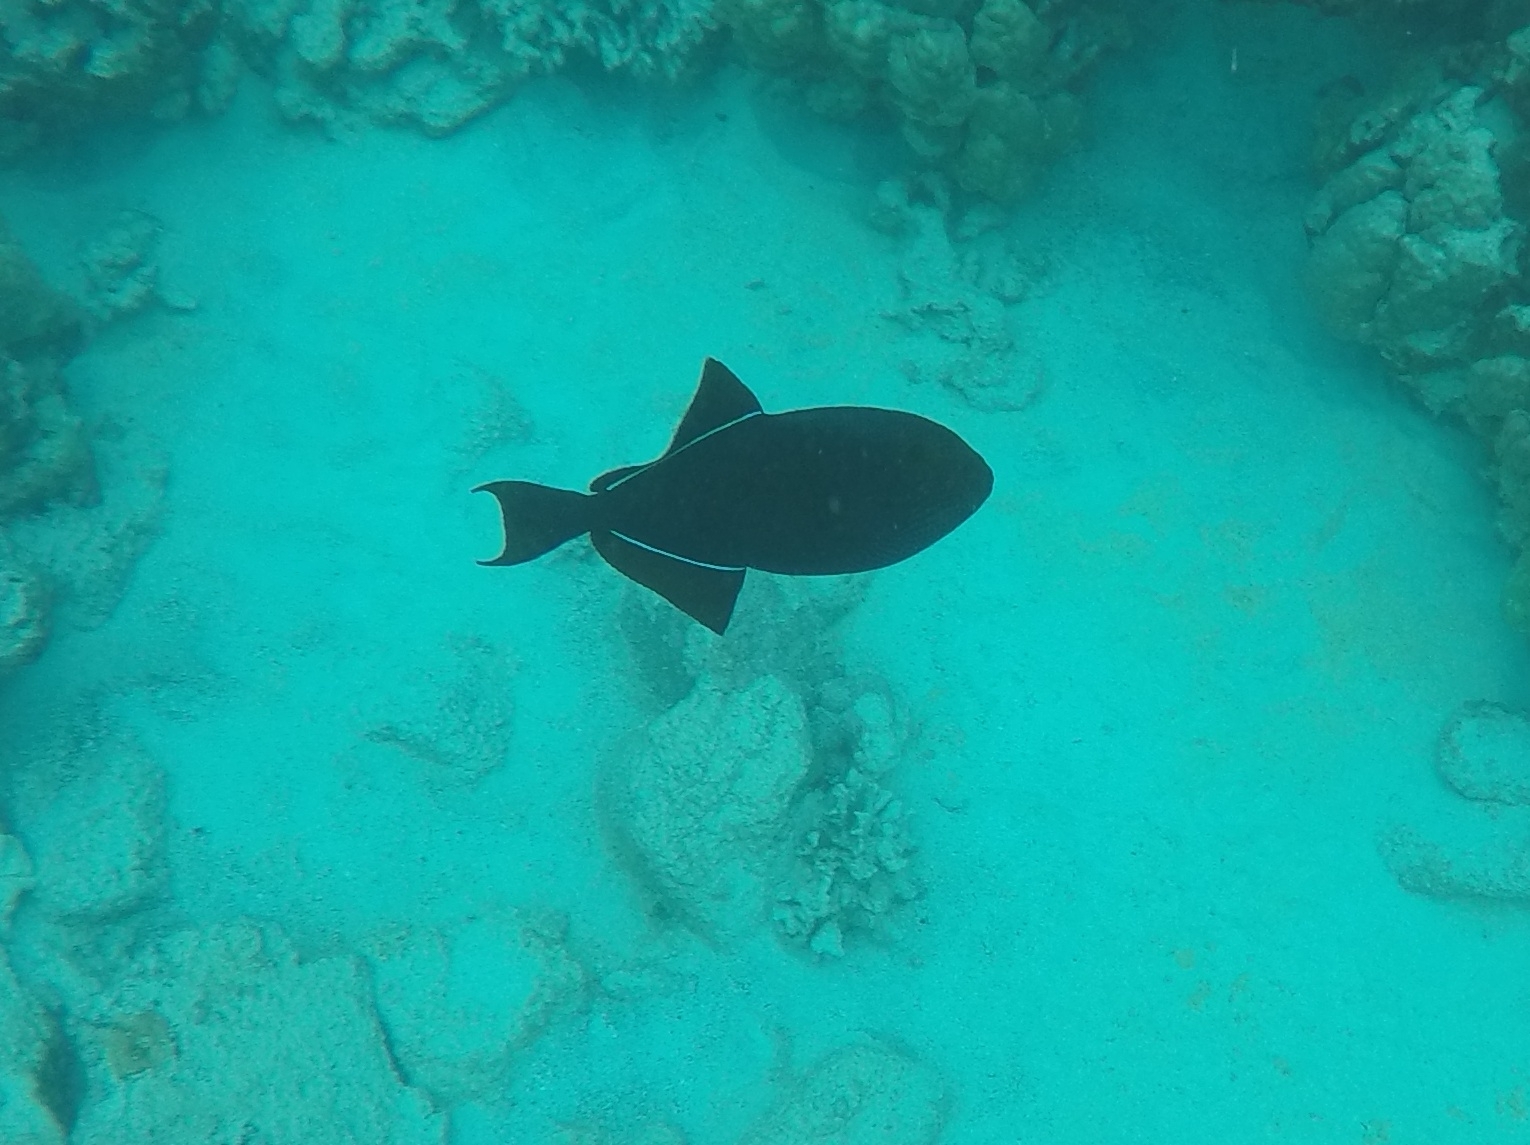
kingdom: Animalia
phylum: Chordata
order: Tetraodontiformes
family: Balistidae
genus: Melichthys
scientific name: Melichthys niger
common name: Black durgon
